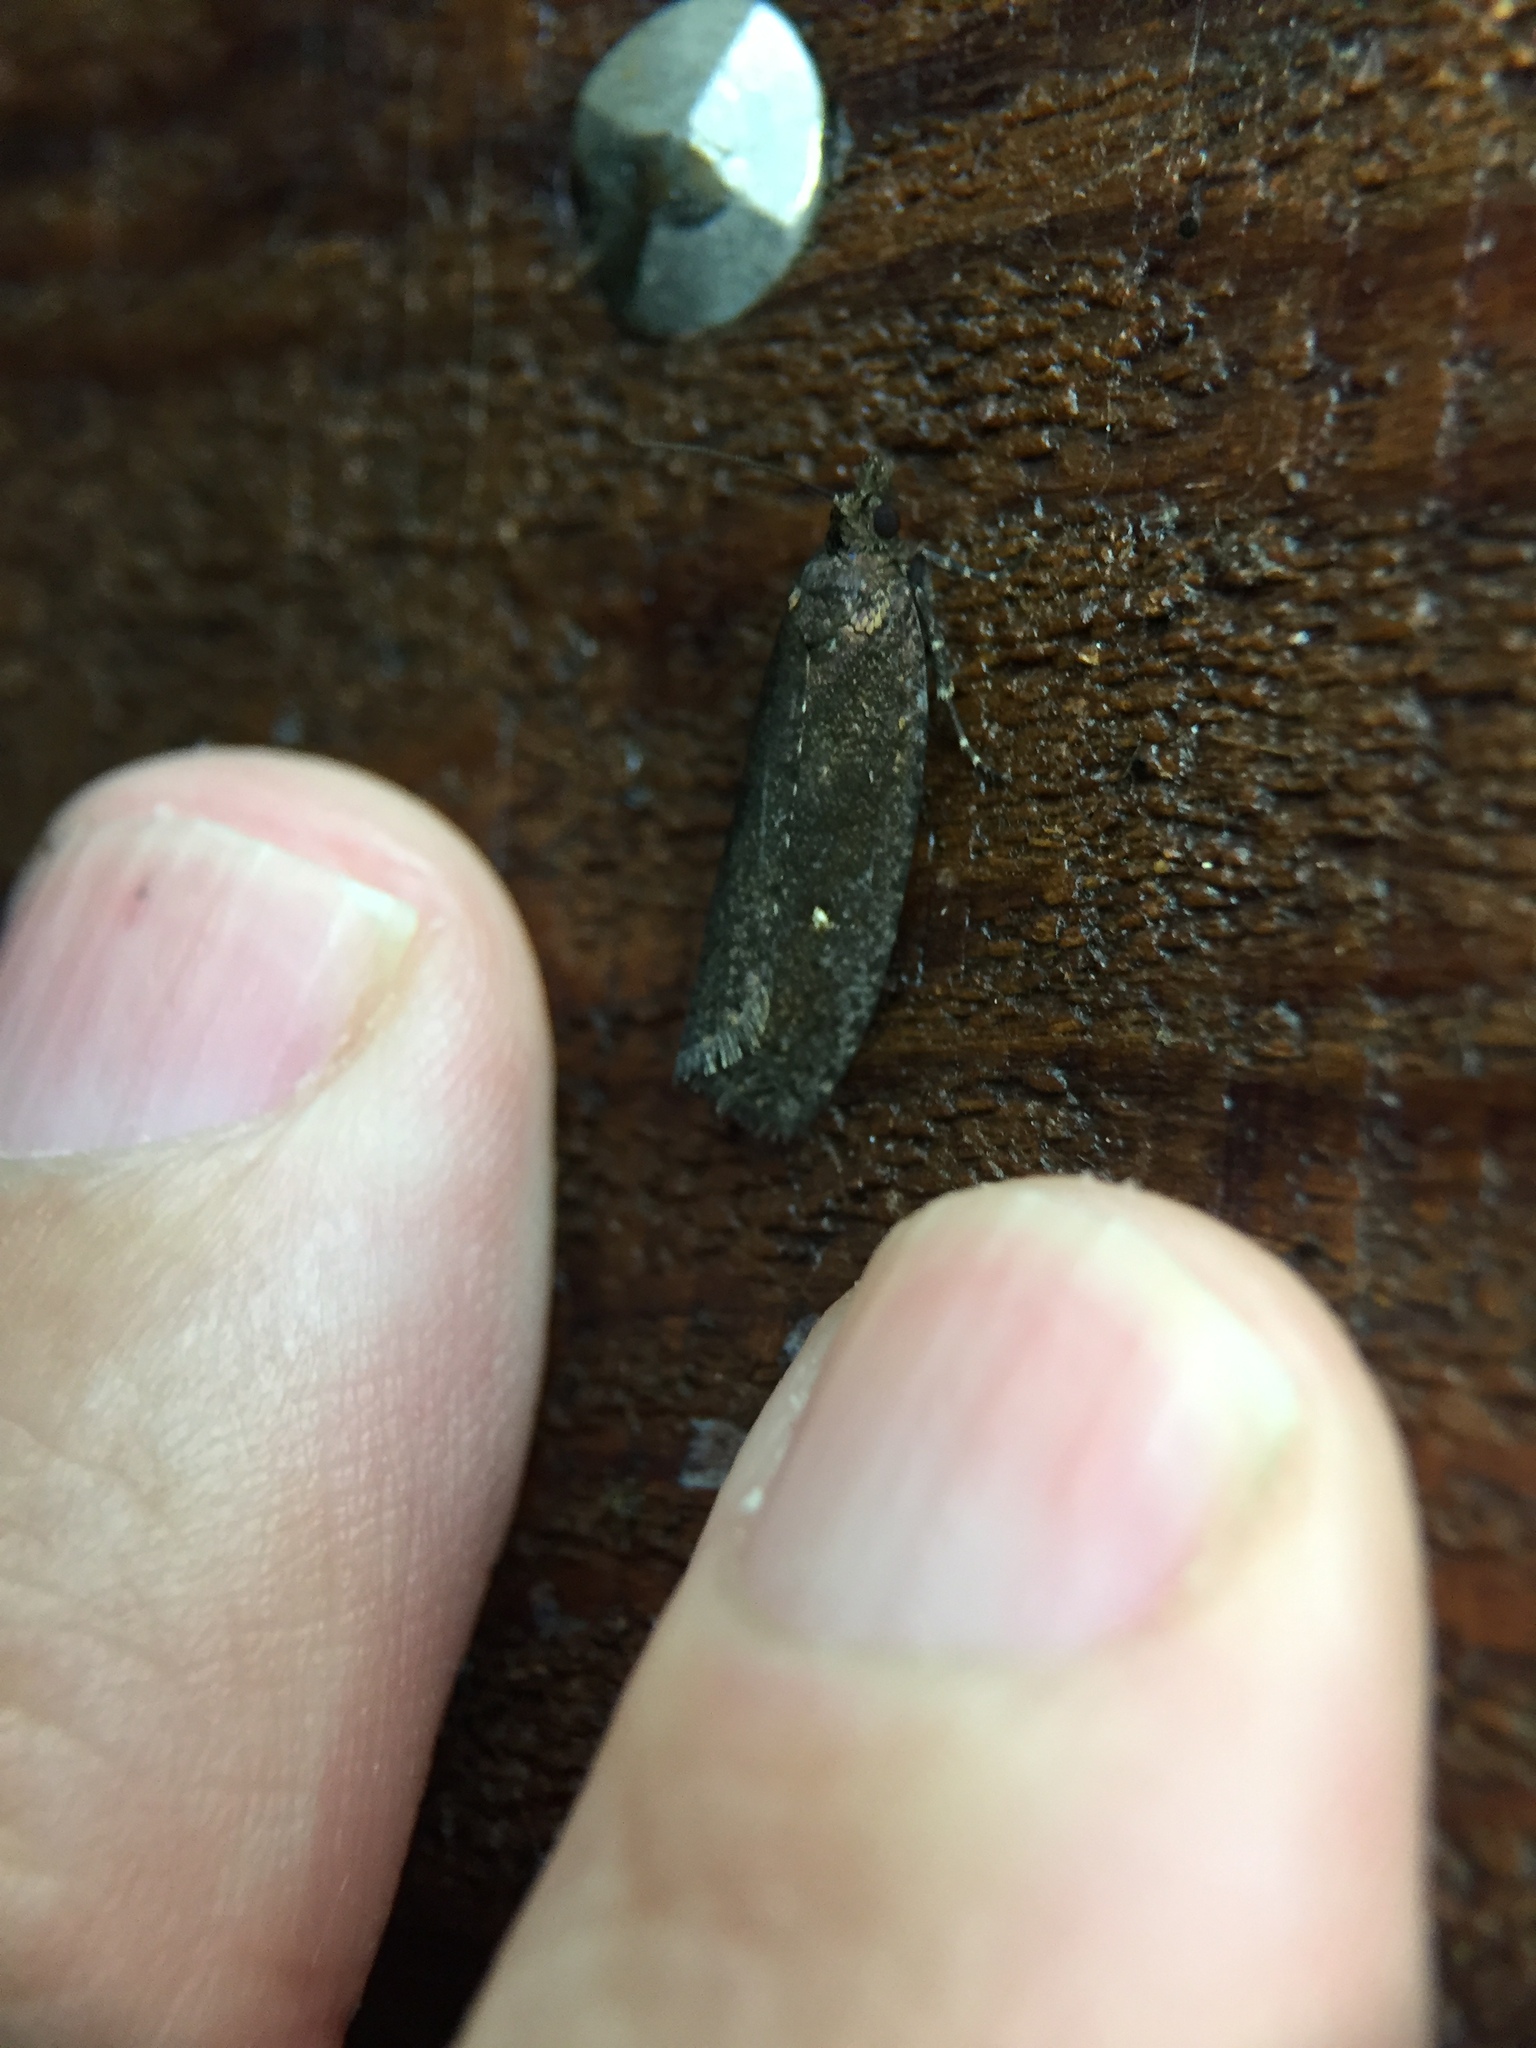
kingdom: Animalia
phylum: Arthropoda
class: Insecta
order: Lepidoptera
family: Tortricidae
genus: Cryptaspasma
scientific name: Cryptaspasma querula
